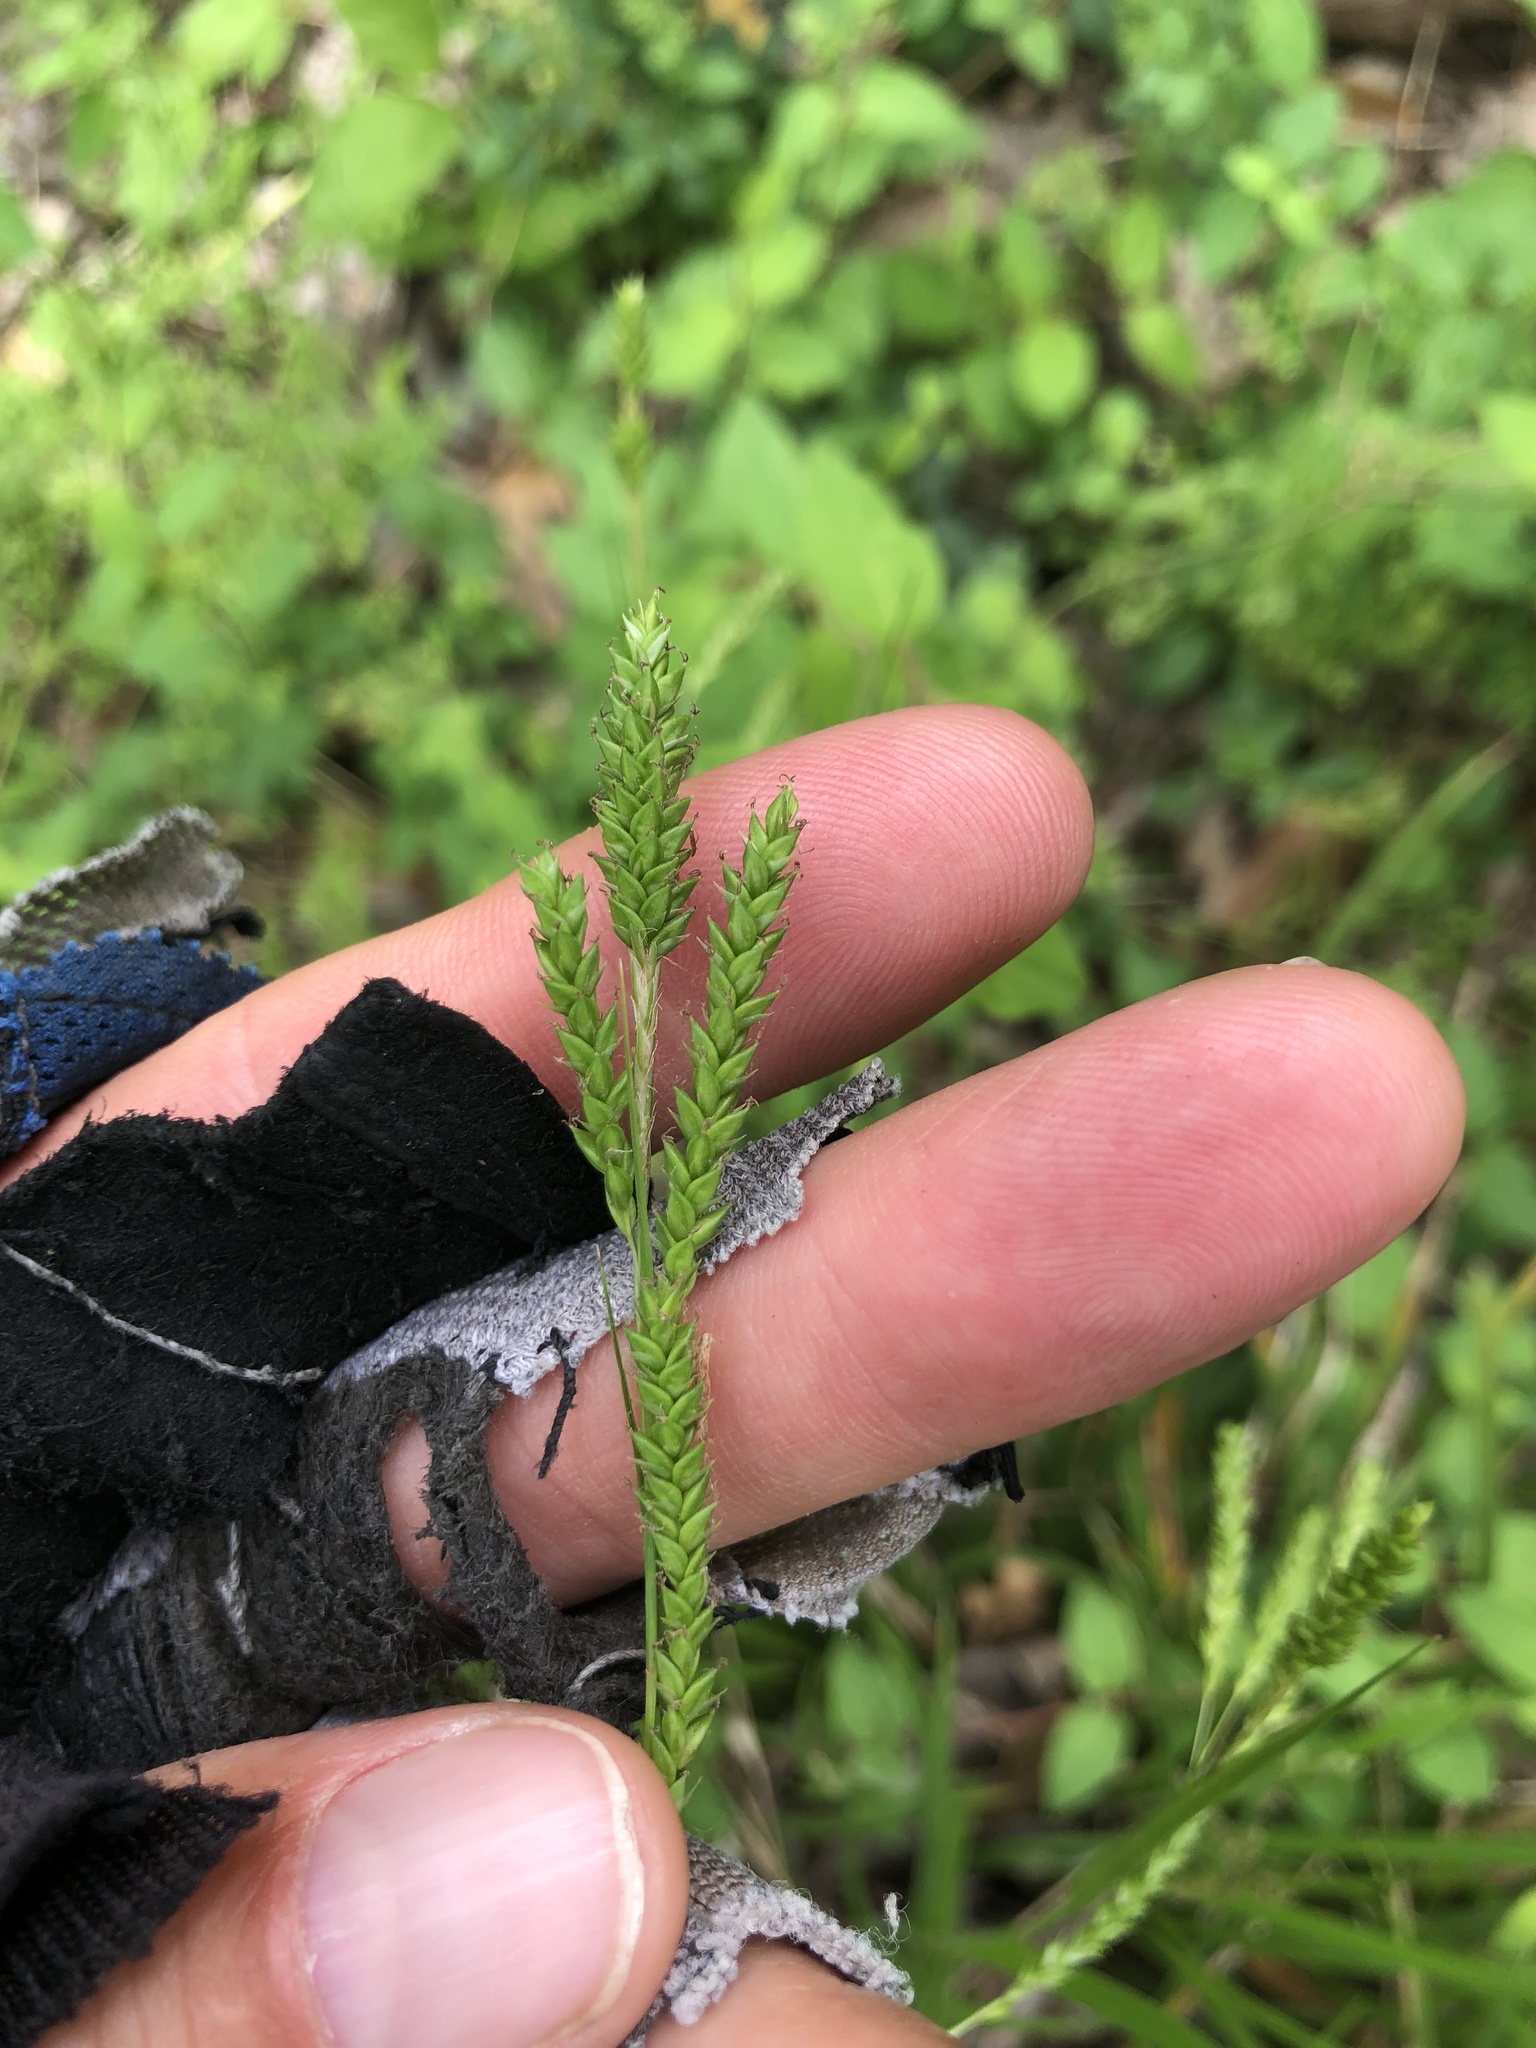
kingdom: Plantae
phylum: Tracheophyta
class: Liliopsida
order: Poales
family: Cyperaceae
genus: Carex
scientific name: Carex oxylepis
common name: Sharpscale sedge
